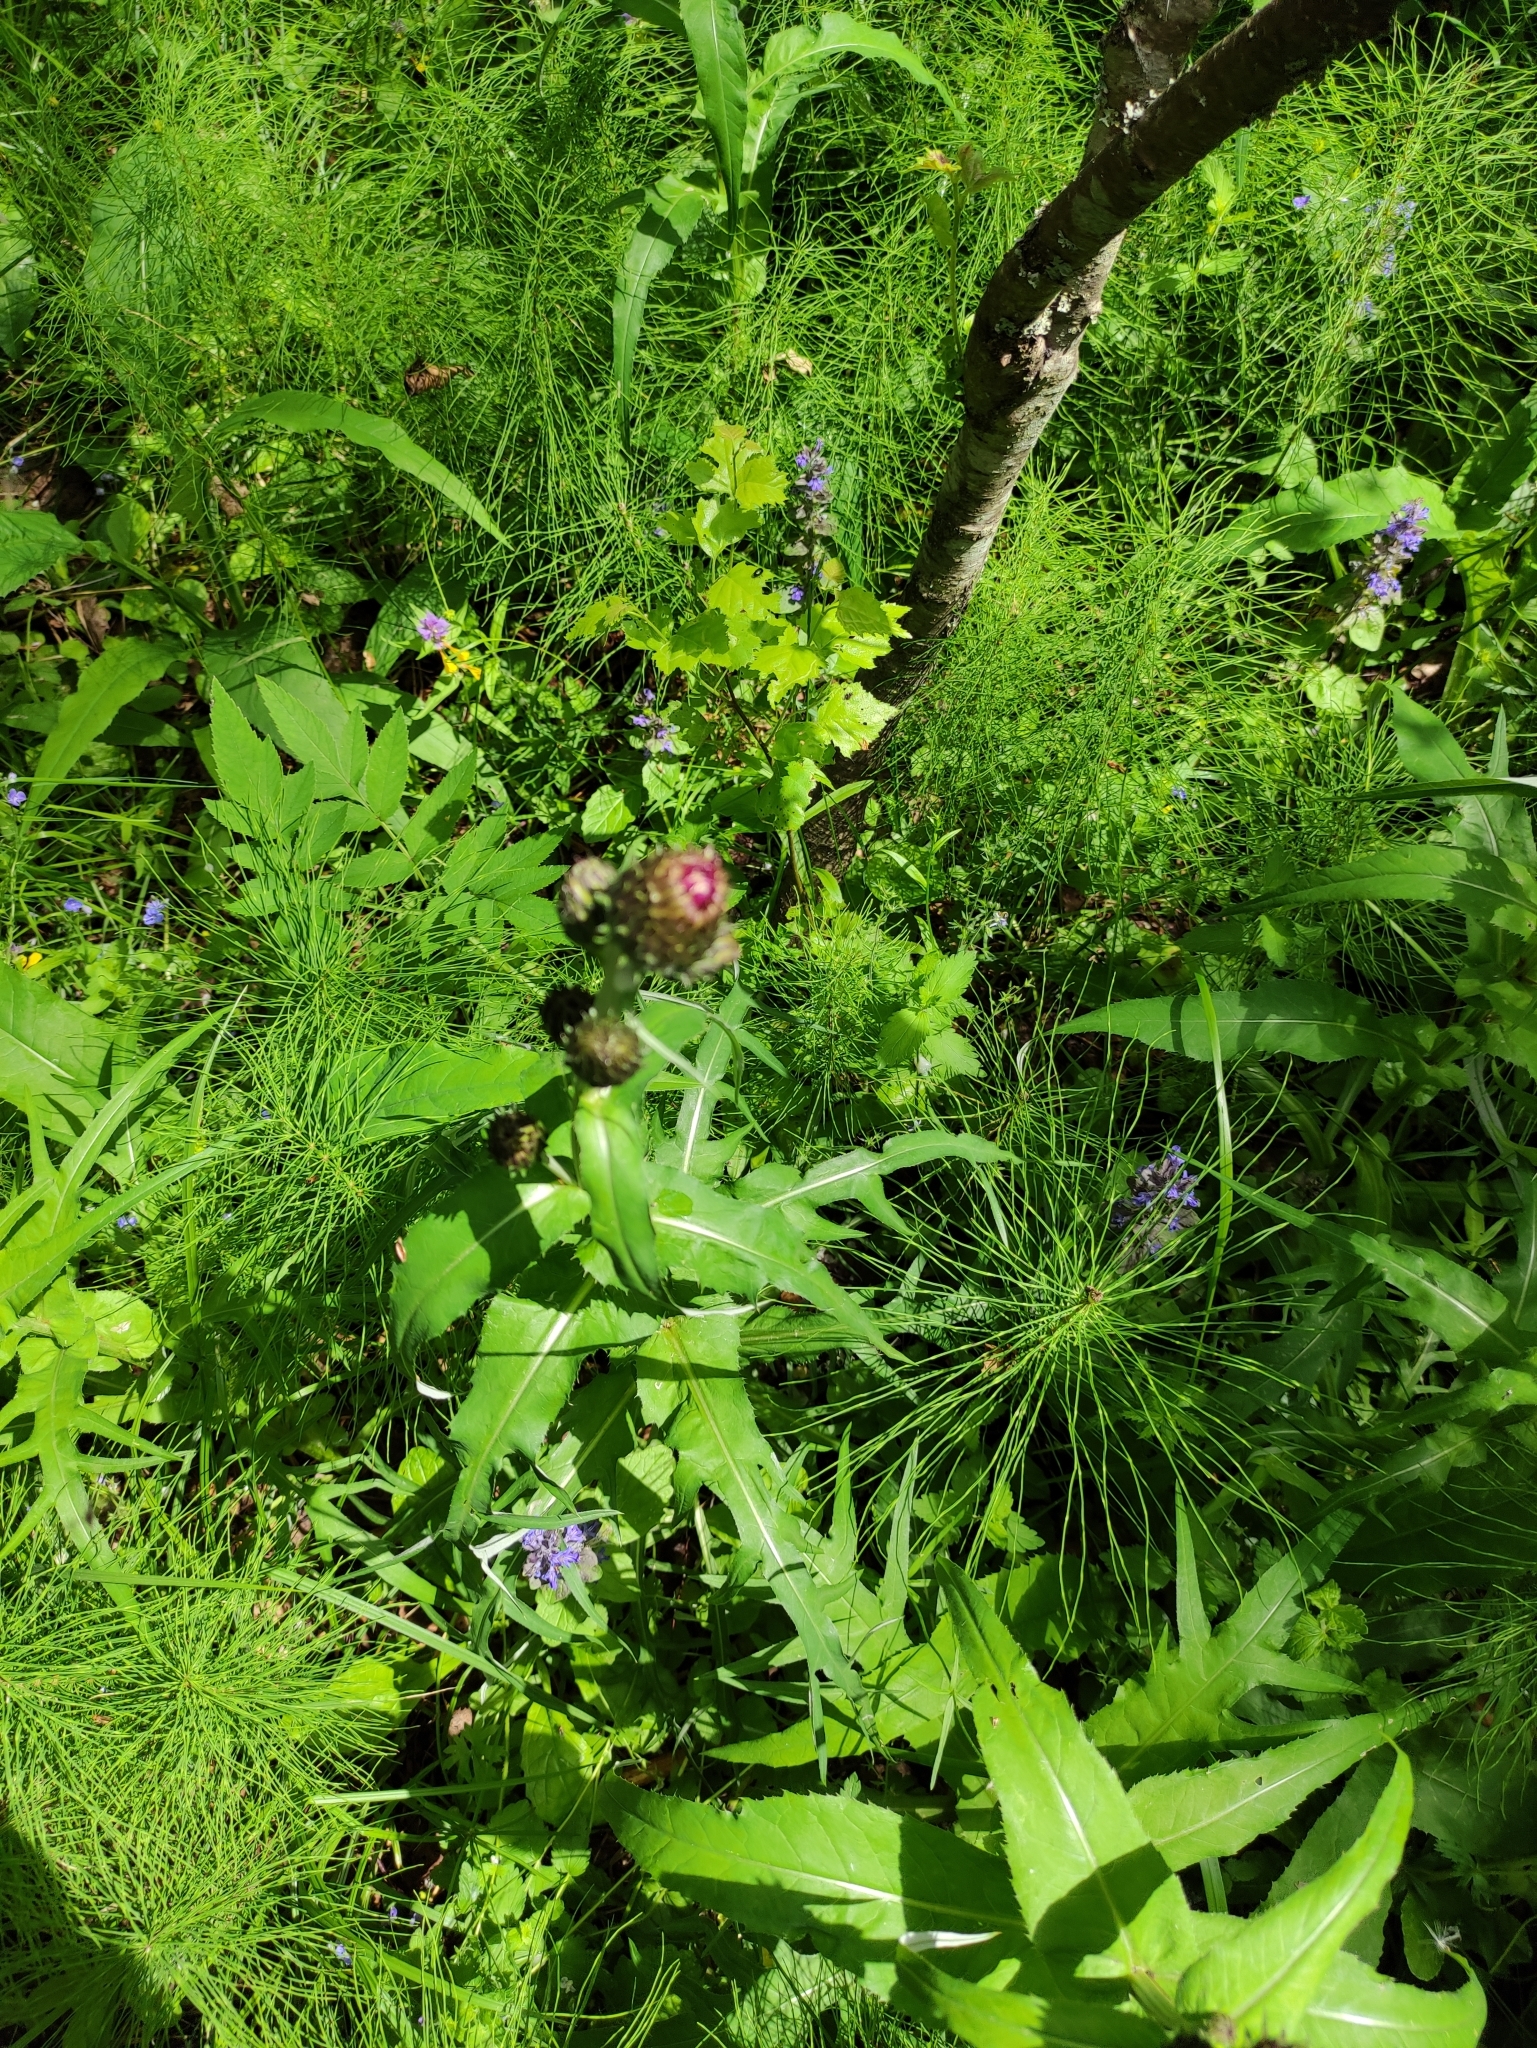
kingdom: Plantae
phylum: Tracheophyta
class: Magnoliopsida
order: Asterales
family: Asteraceae
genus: Cirsium
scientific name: Cirsium heterophyllum
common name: Melancholy thistle
